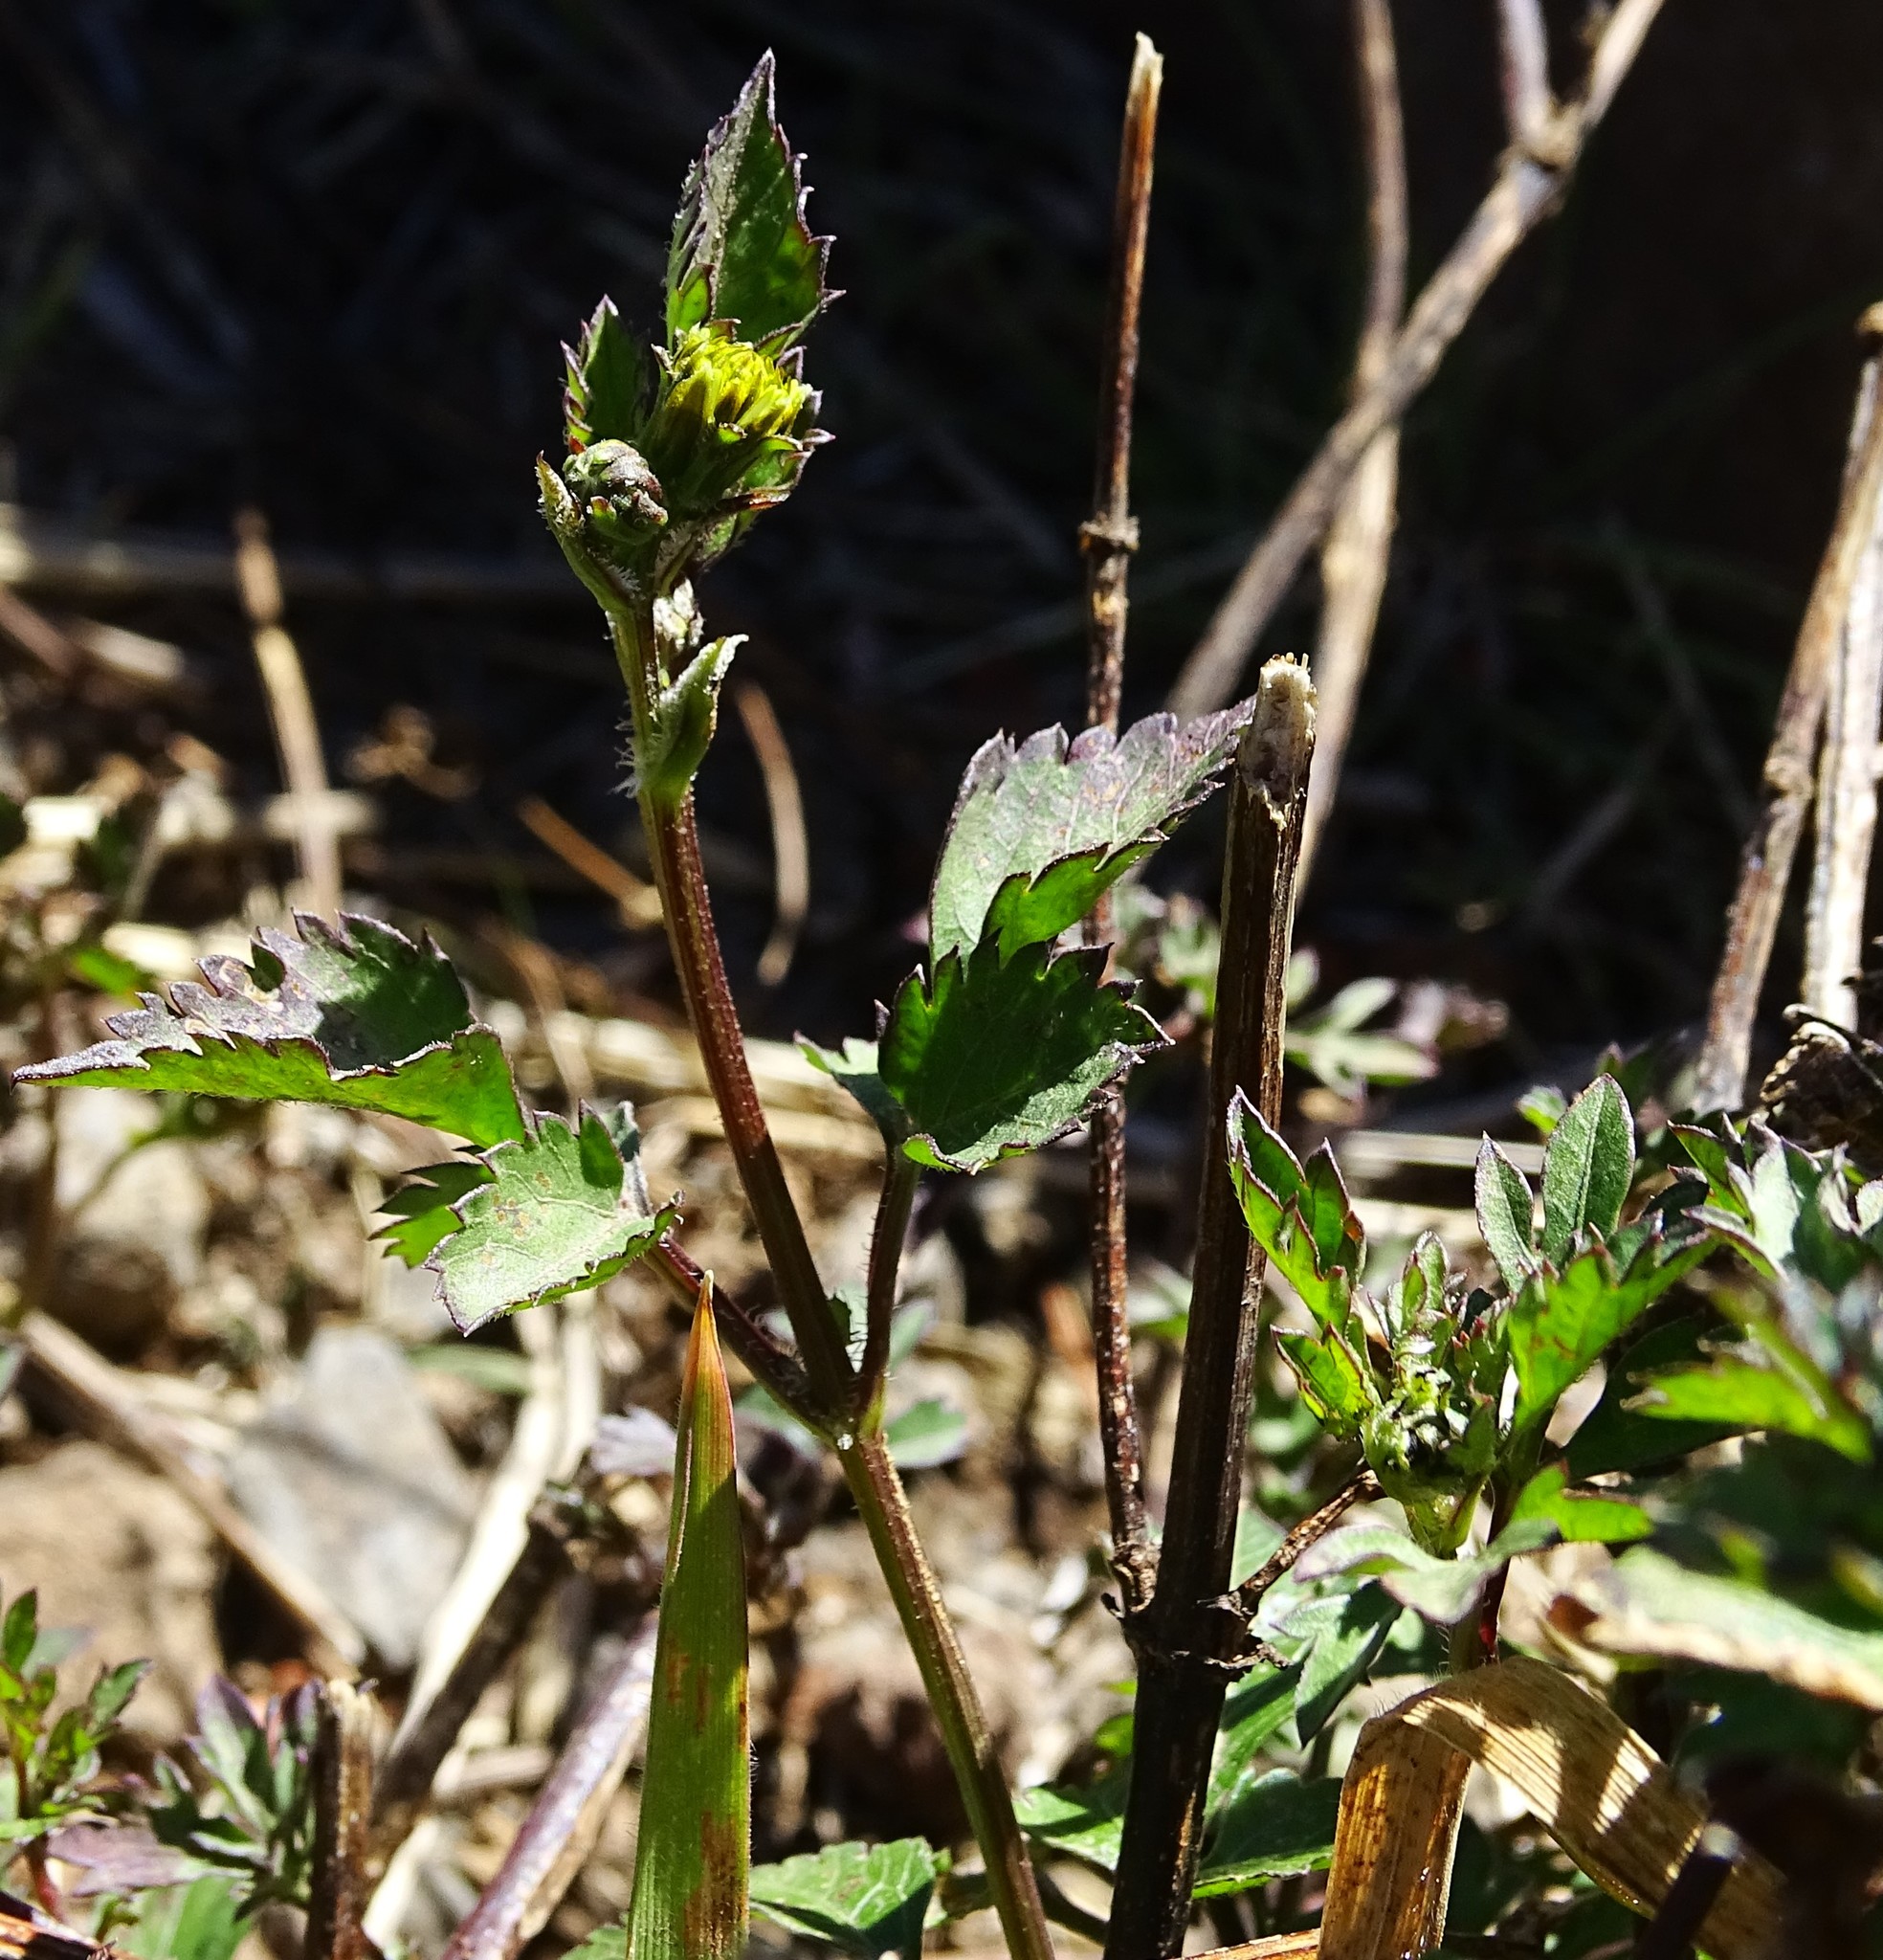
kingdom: Plantae
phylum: Tracheophyta
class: Magnoliopsida
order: Asterales
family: Asteraceae
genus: Bidens
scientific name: Bidens alba
